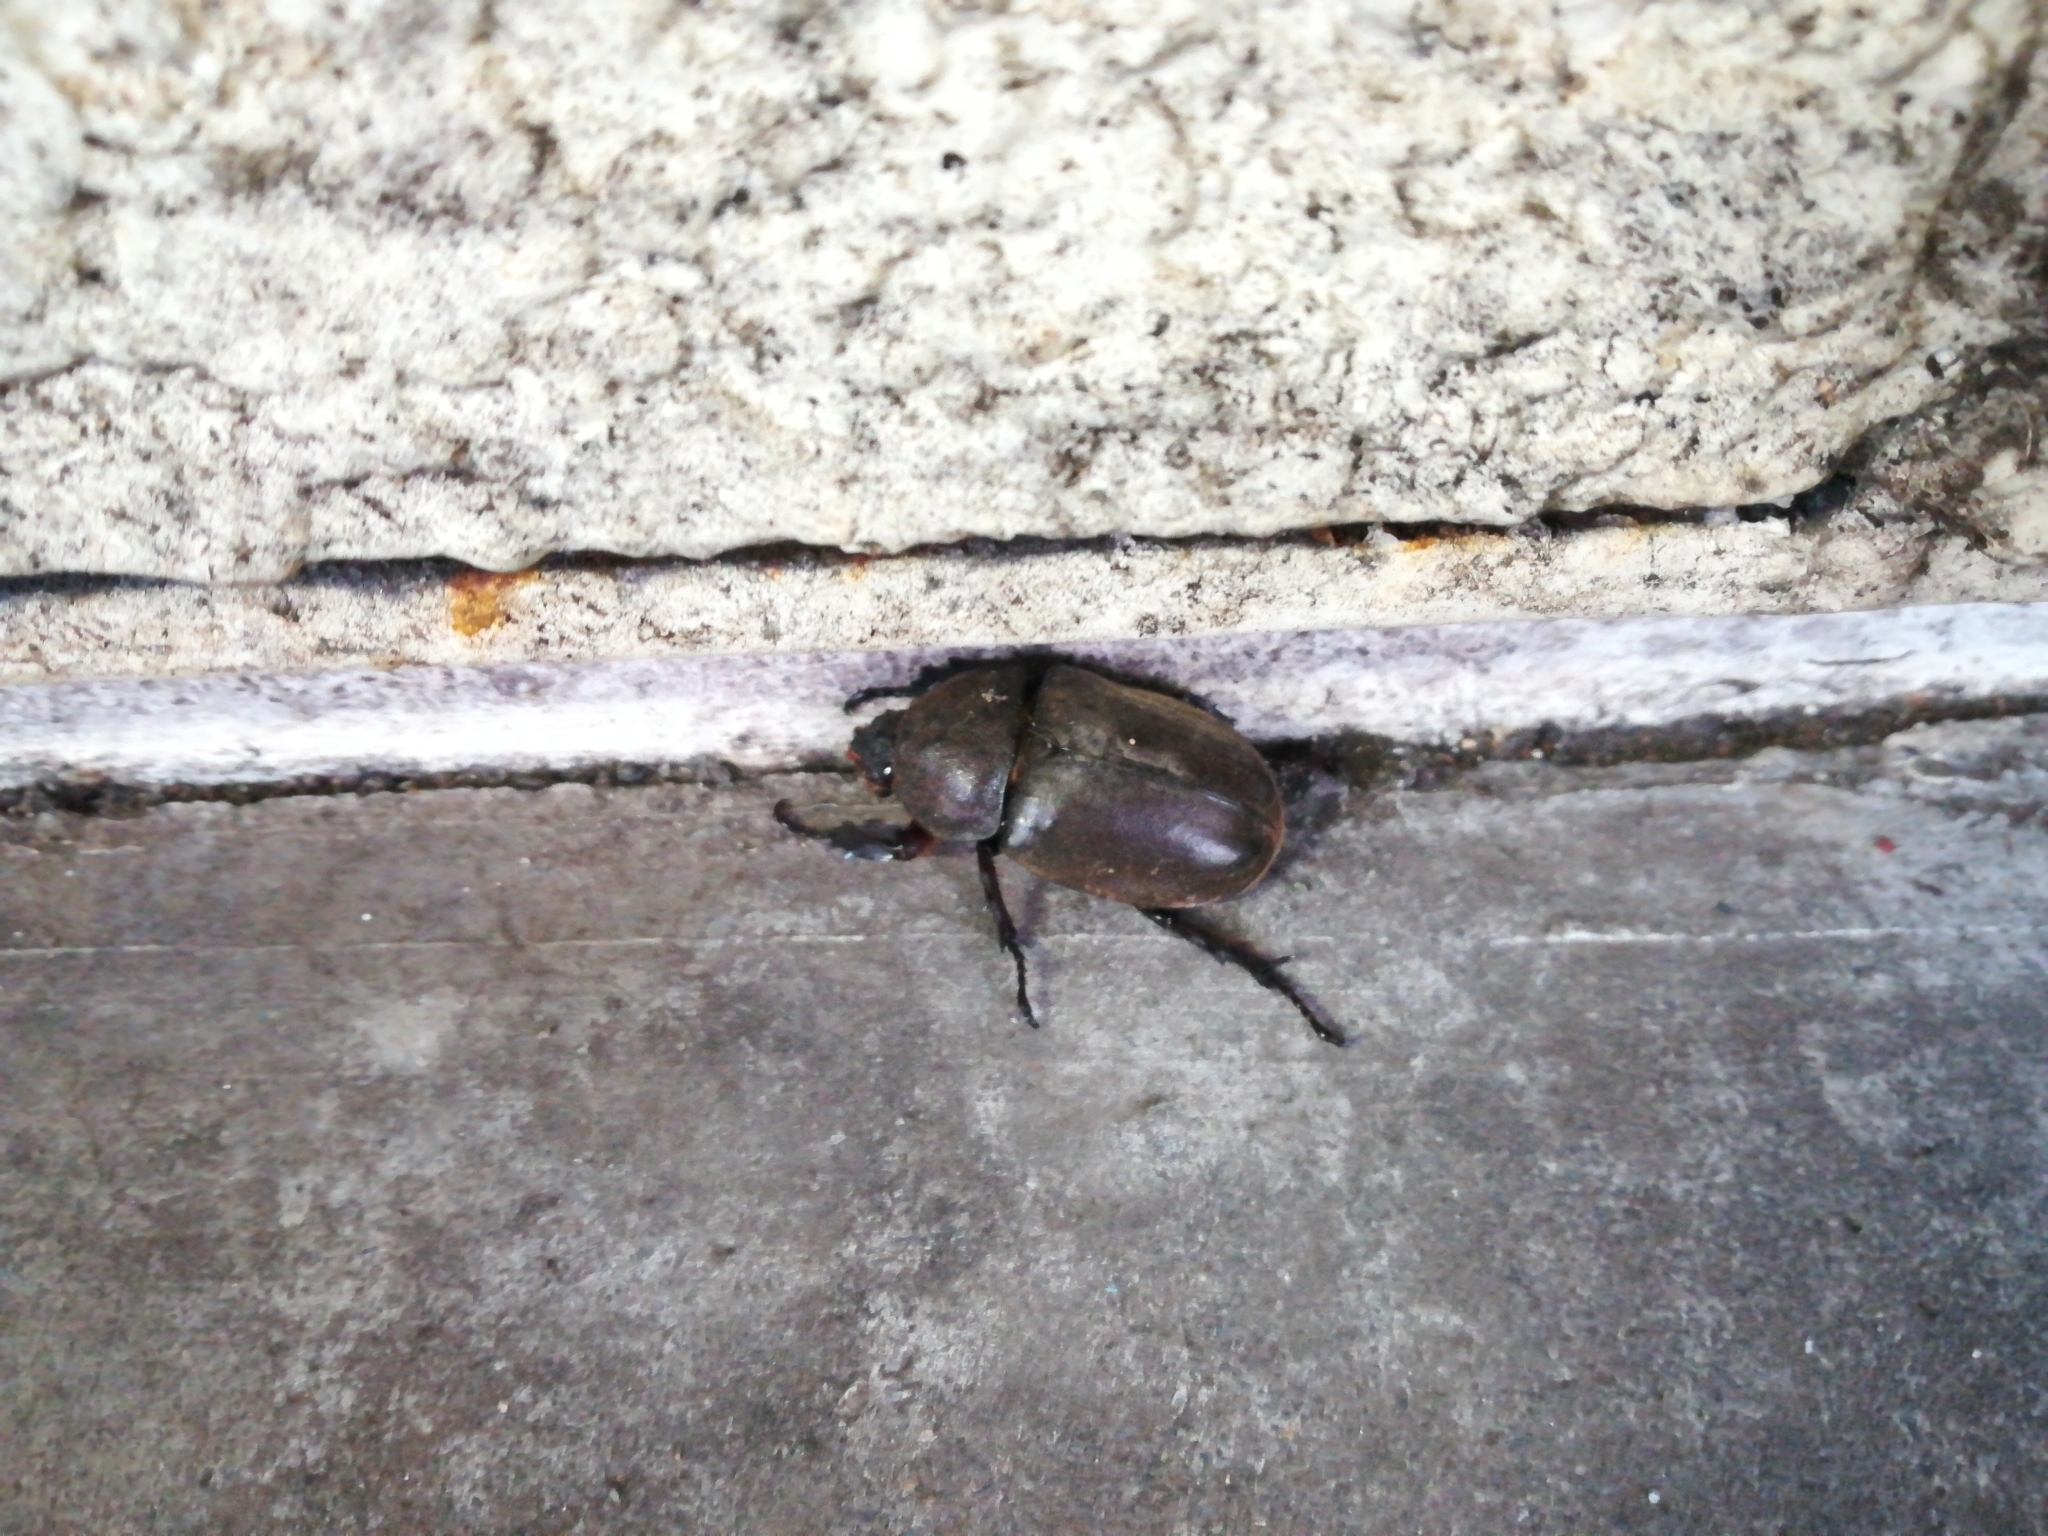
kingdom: Animalia
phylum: Arthropoda
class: Insecta
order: Coleoptera
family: Scarabaeidae
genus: Trypoxylus
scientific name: Trypoxylus dichotomus
